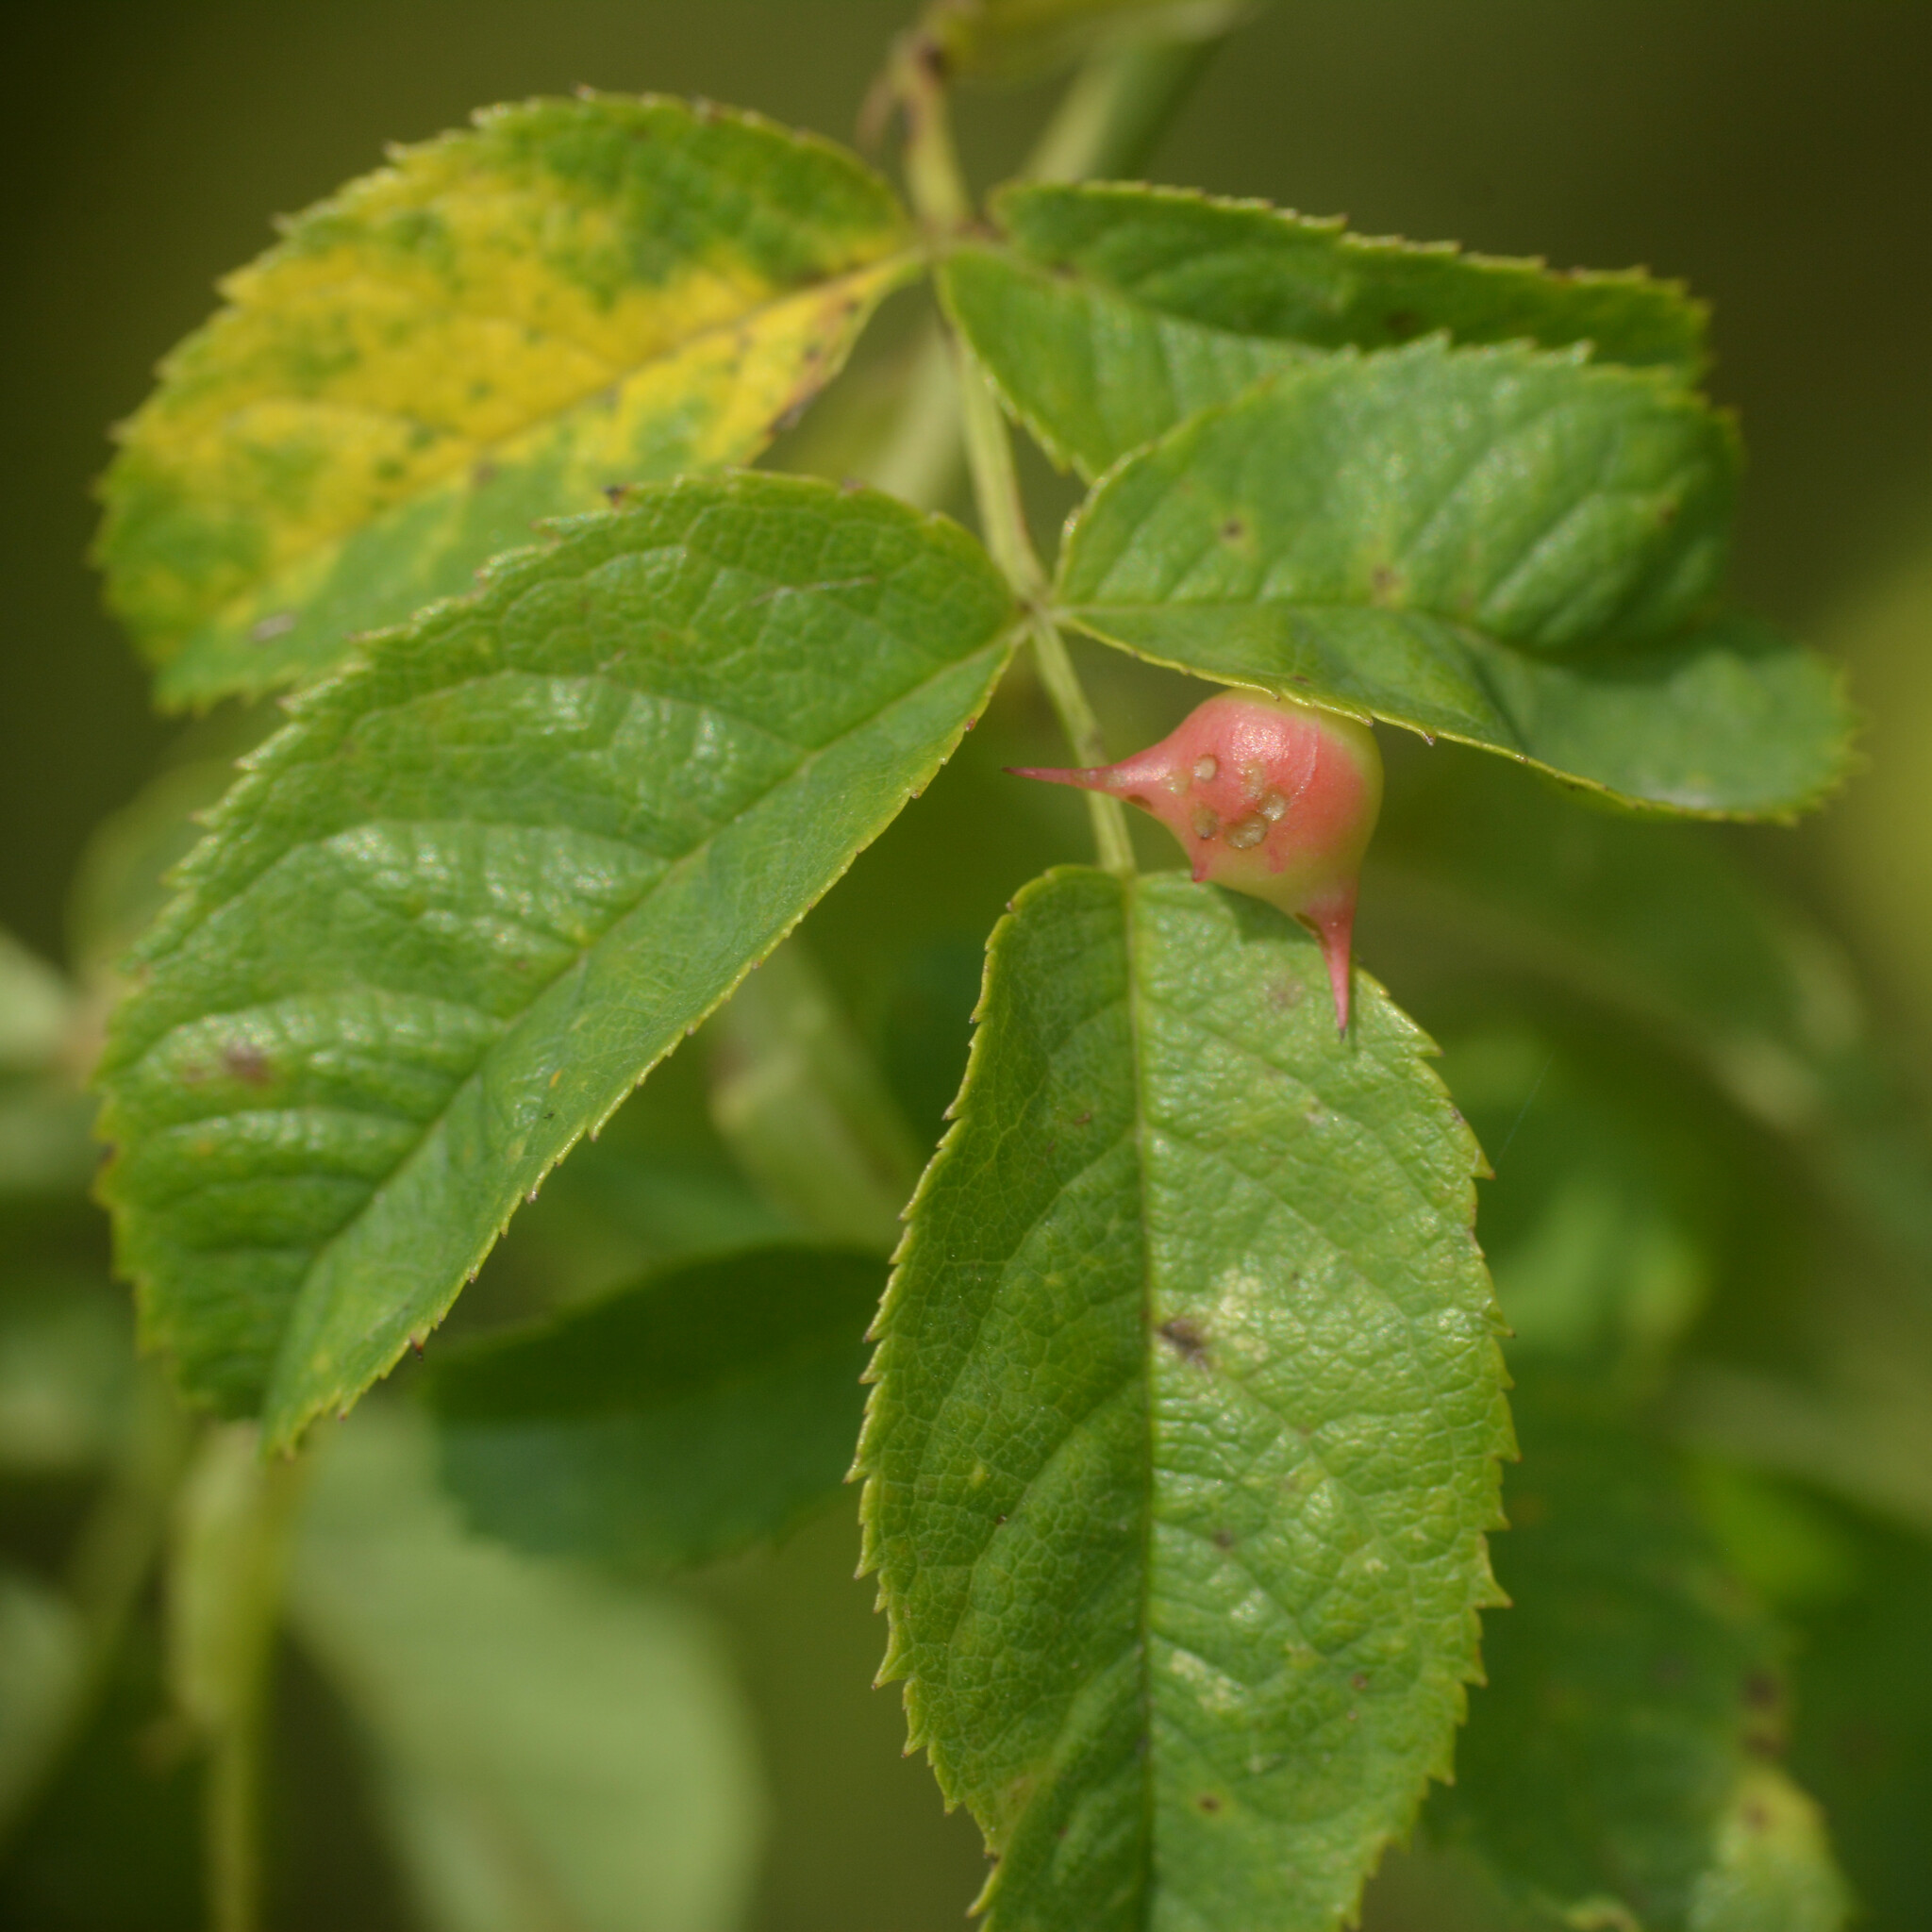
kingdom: Animalia
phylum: Arthropoda
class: Insecta
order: Hymenoptera
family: Cynipidae
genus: Diplolepis
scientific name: Diplolepis nervosa
